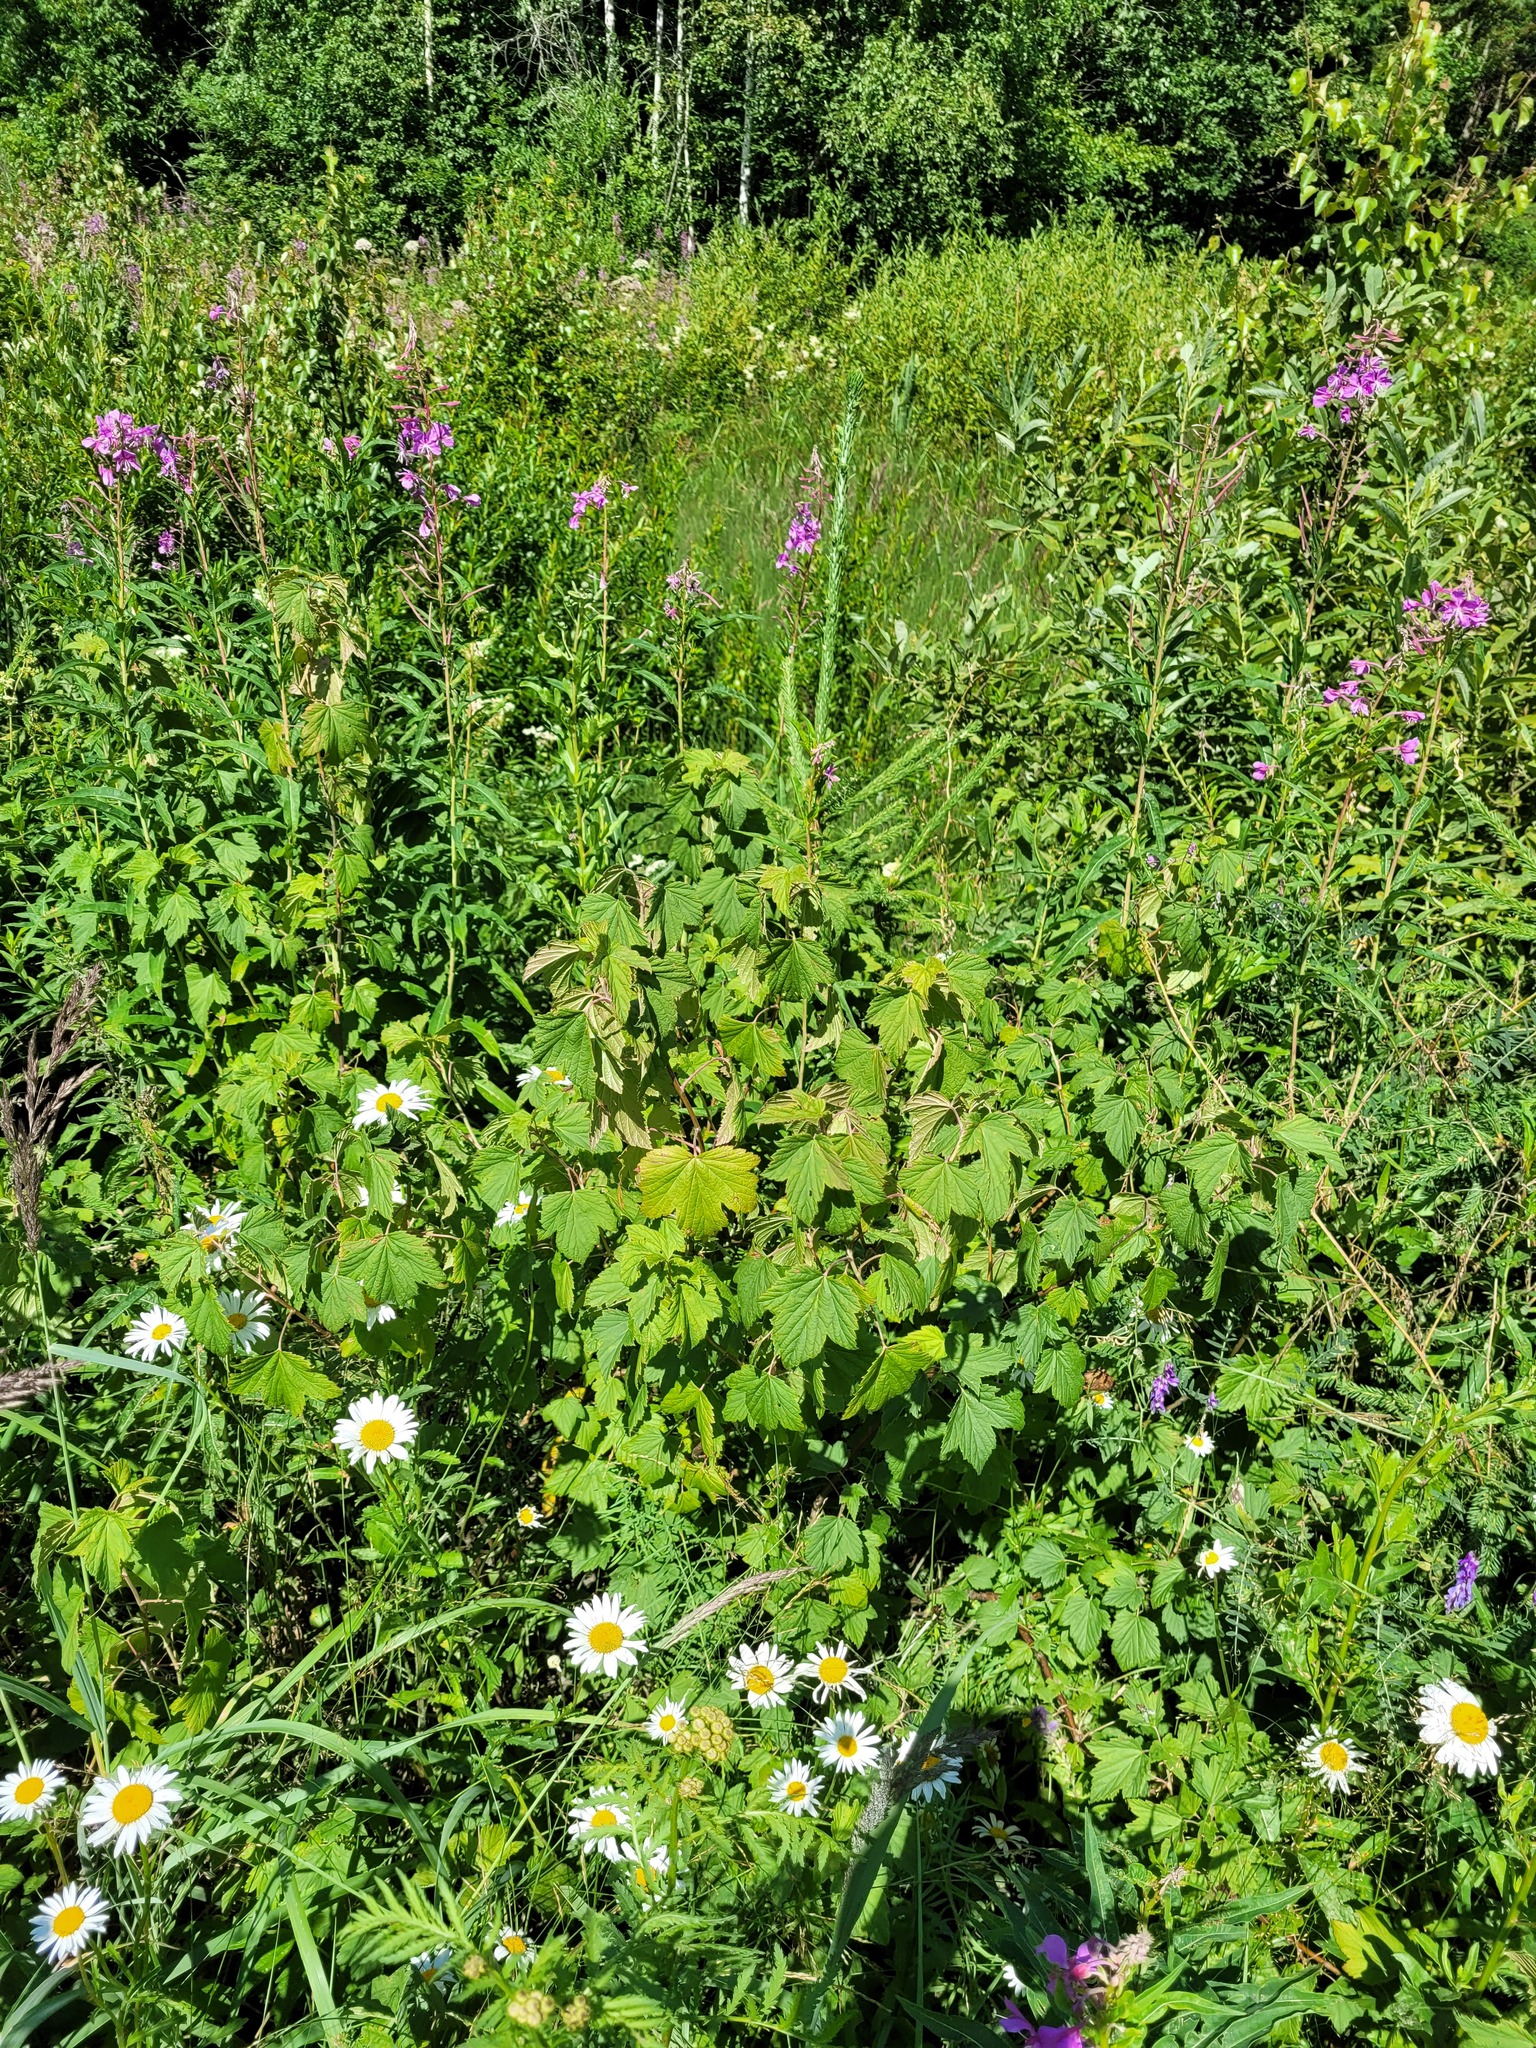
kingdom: Plantae
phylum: Tracheophyta
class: Magnoliopsida
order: Saxifragales
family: Grossulariaceae
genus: Ribes
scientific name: Ribes nigrum
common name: Black currant
